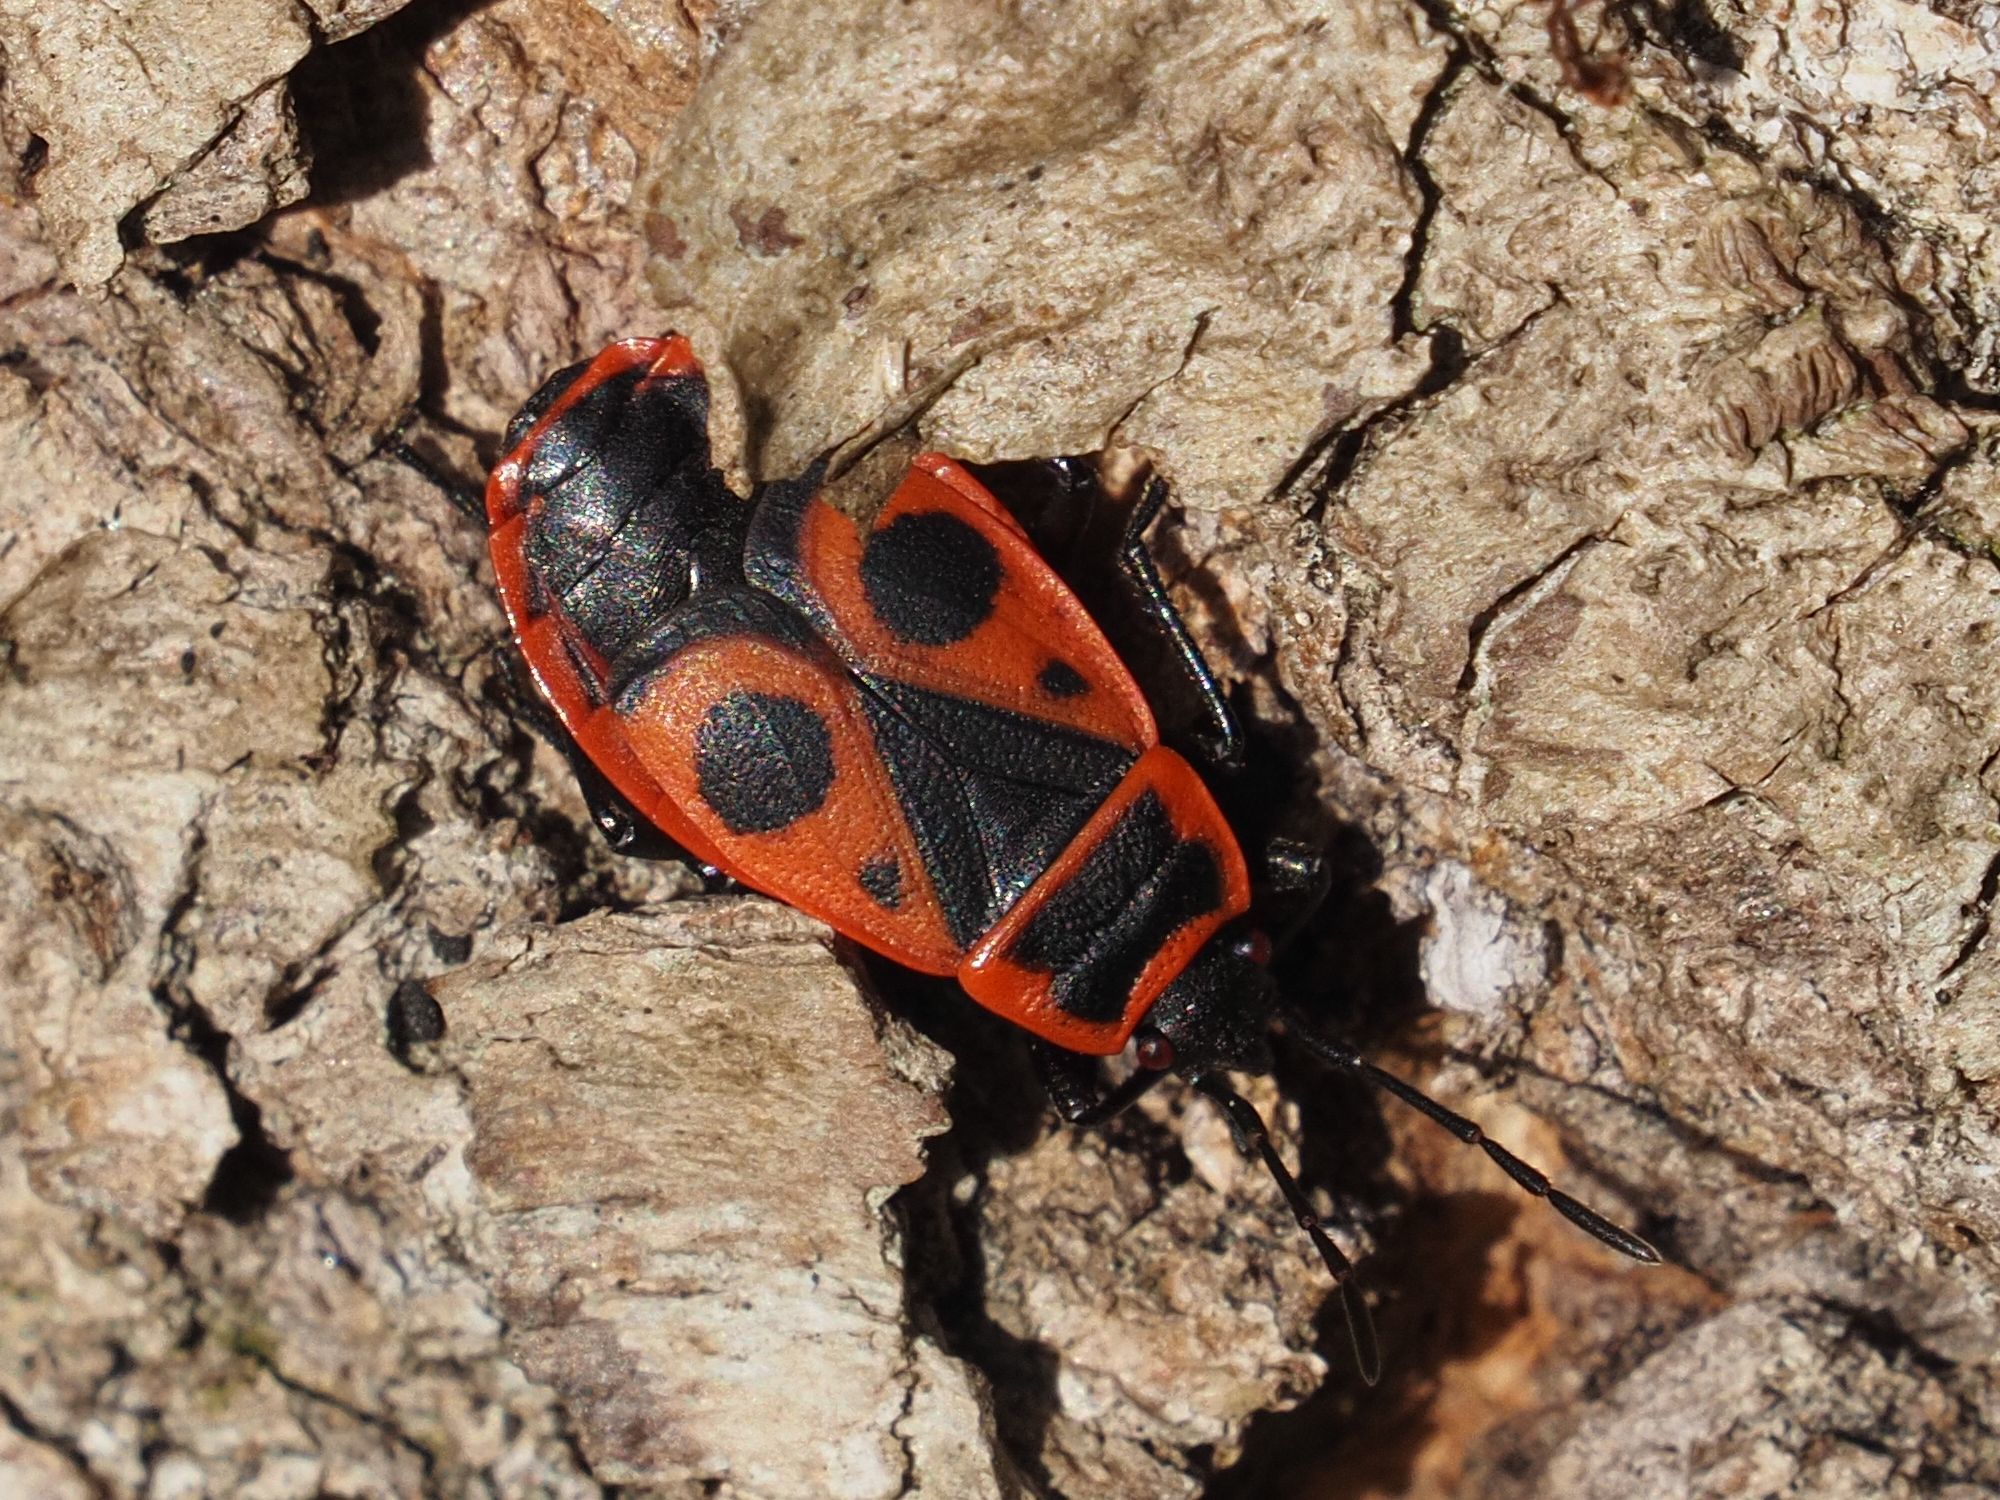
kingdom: Animalia
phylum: Arthropoda
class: Insecta
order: Hemiptera
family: Pyrrhocoridae
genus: Pyrrhocoris
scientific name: Pyrrhocoris apterus
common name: Firebug
